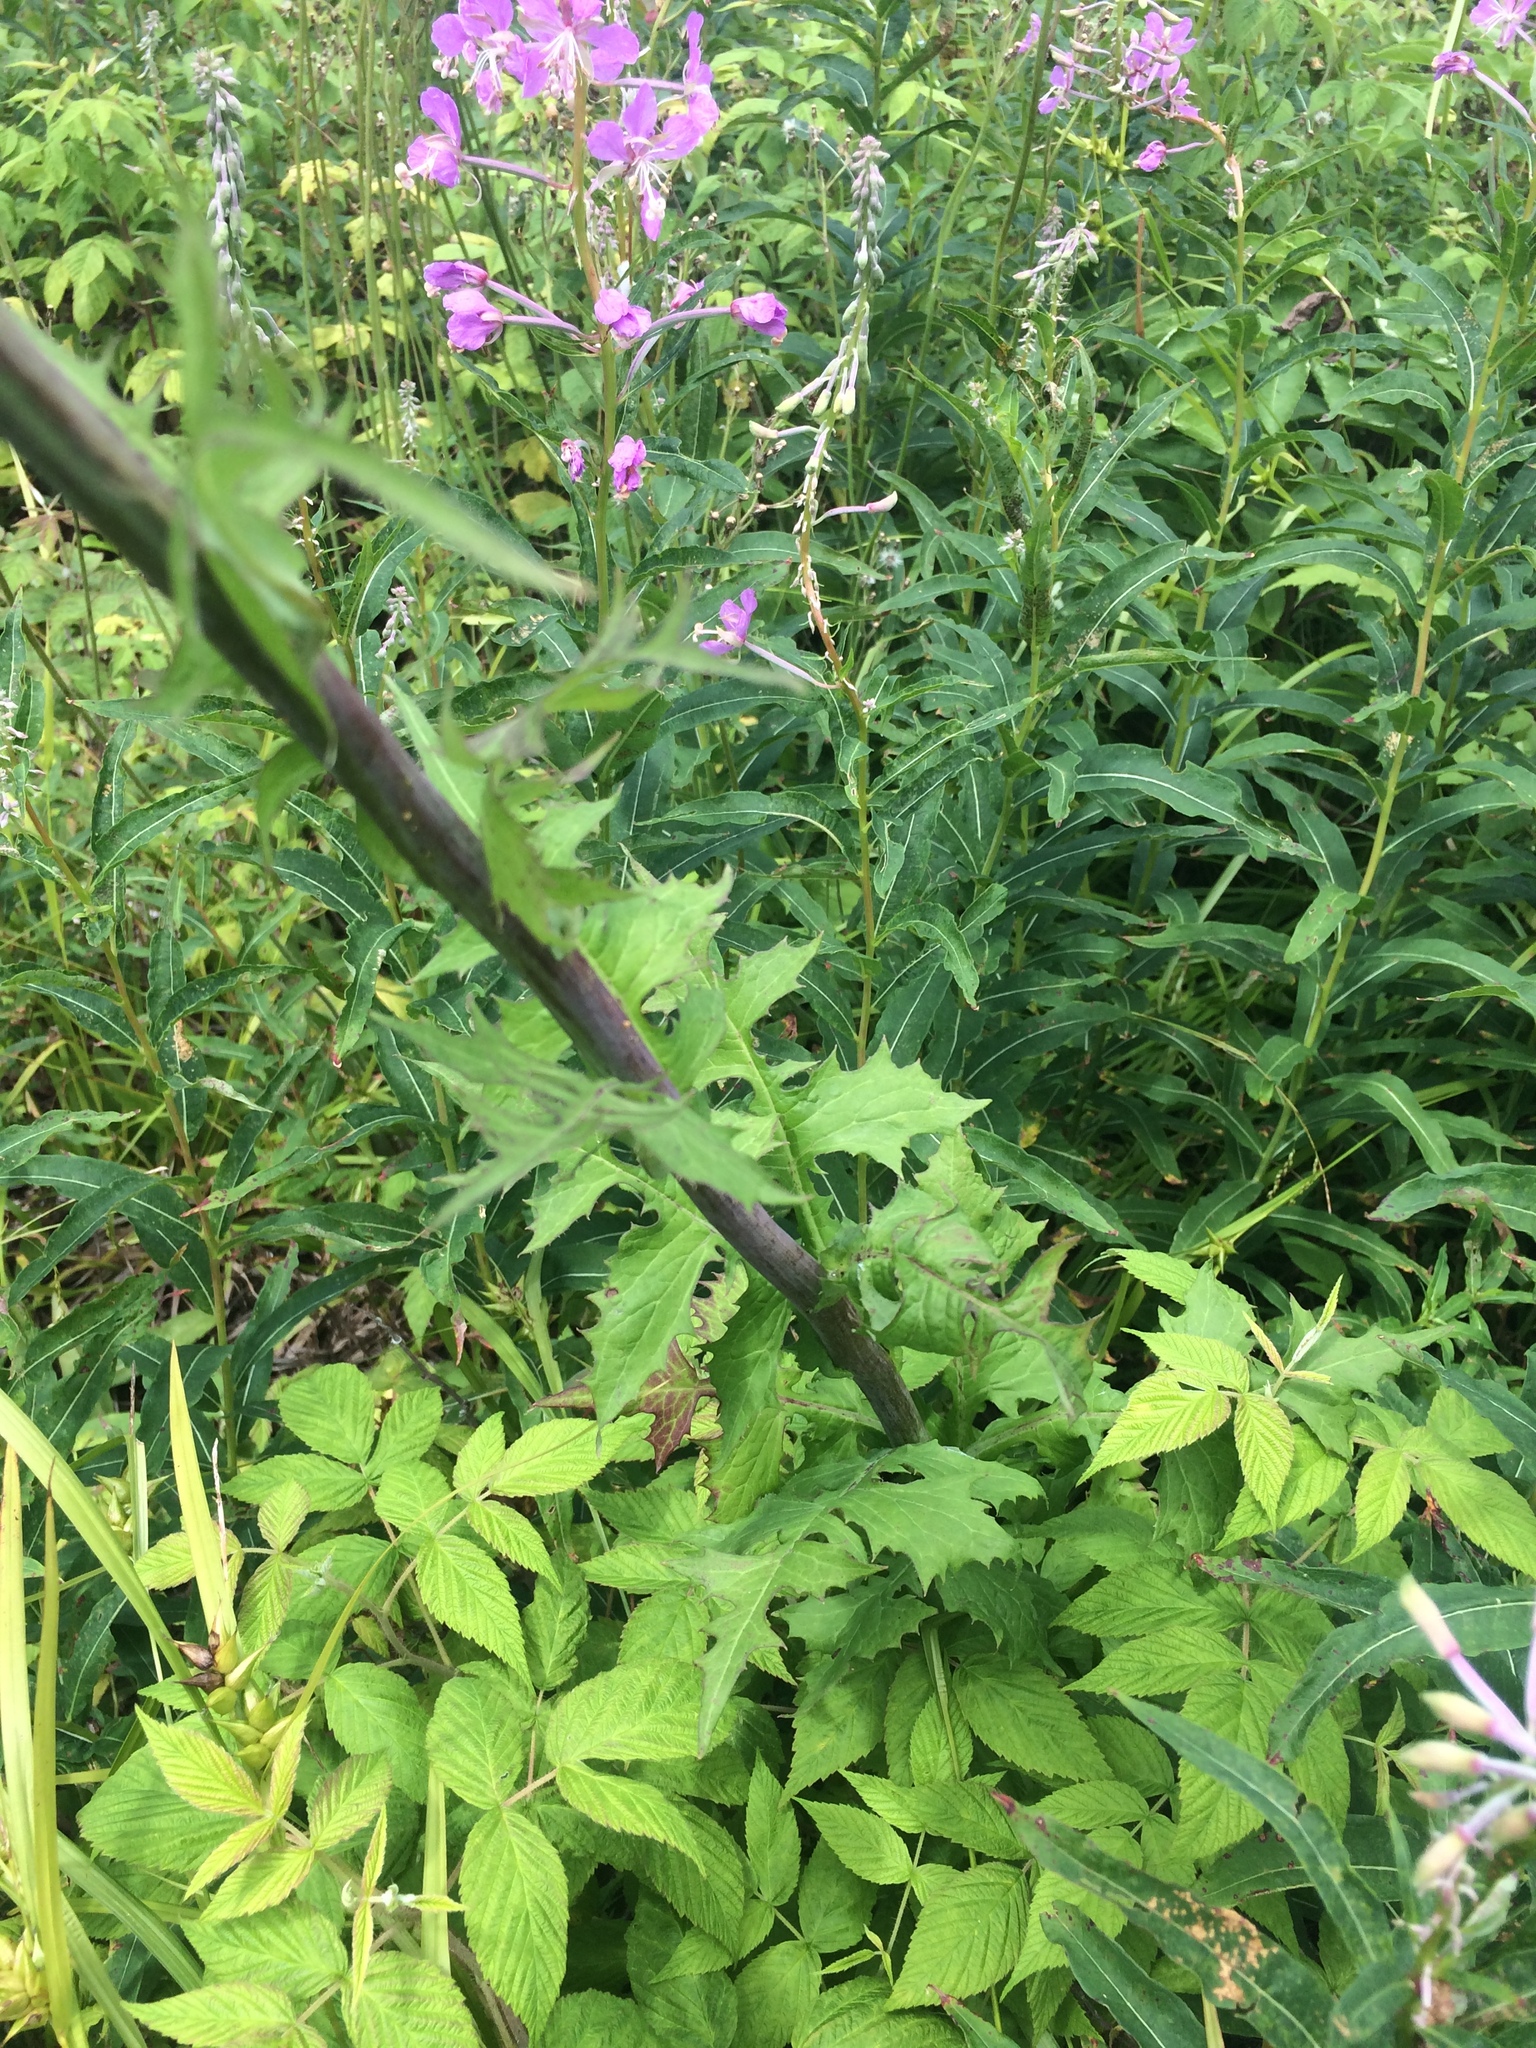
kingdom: Plantae
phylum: Tracheophyta
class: Magnoliopsida
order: Asterales
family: Asteraceae
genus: Lactuca
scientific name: Lactuca biennis
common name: Blue wood lettuce
